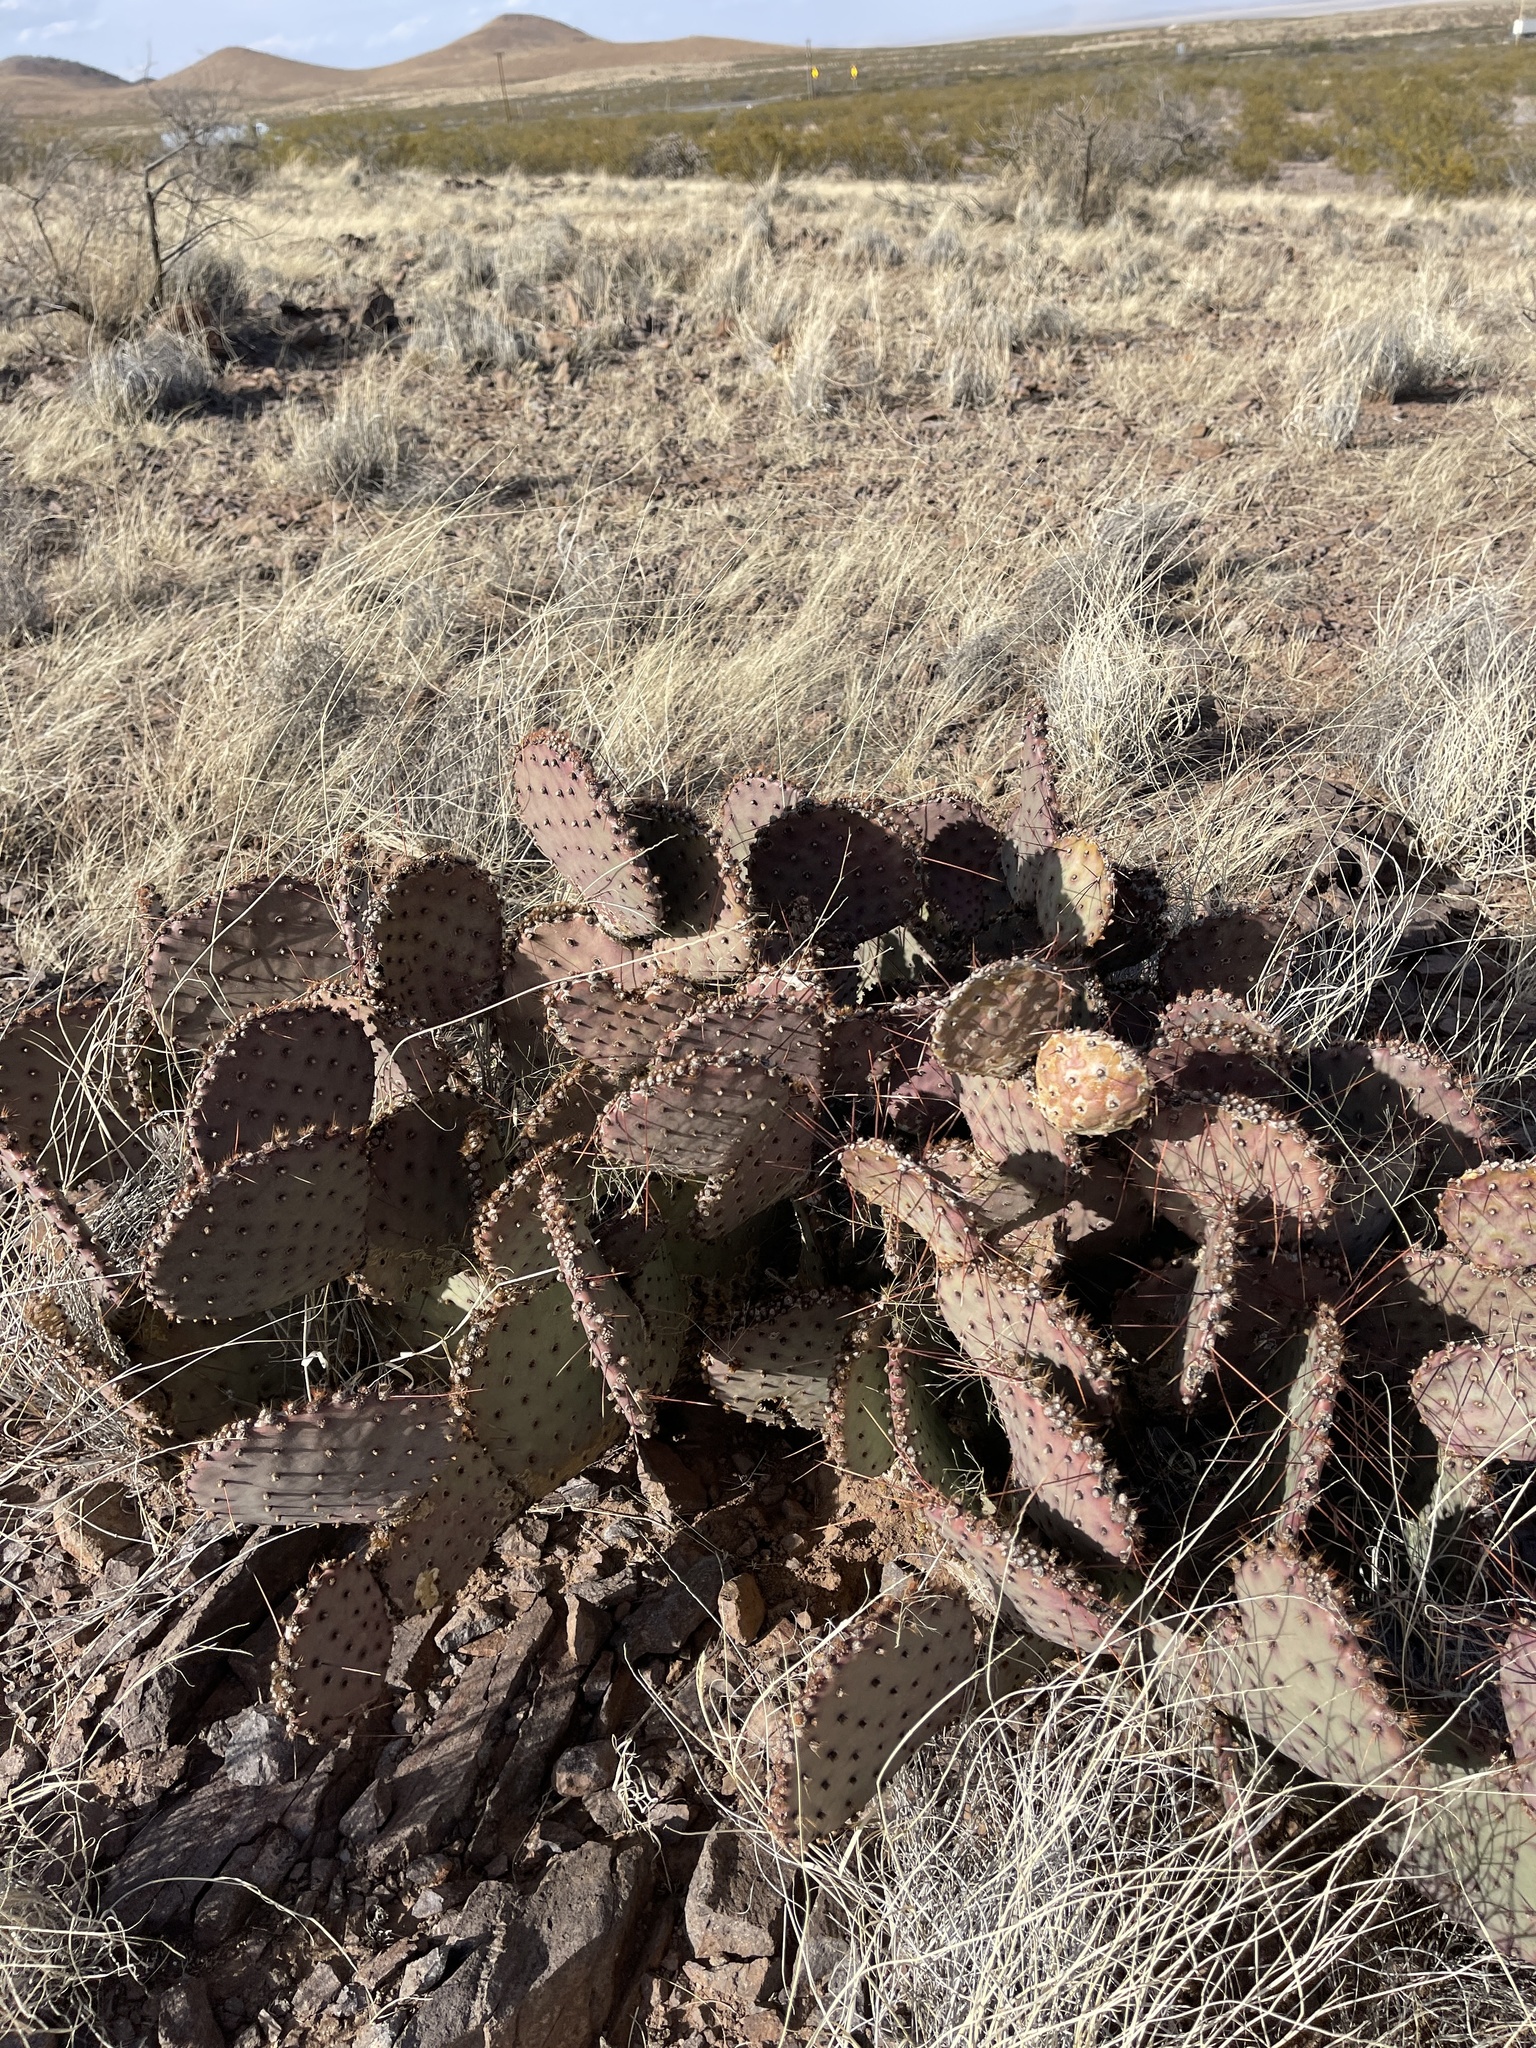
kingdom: Plantae
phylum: Tracheophyta
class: Magnoliopsida
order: Caryophyllales
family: Cactaceae
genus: Opuntia
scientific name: Opuntia macrocentra
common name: Purple prickly-pear
